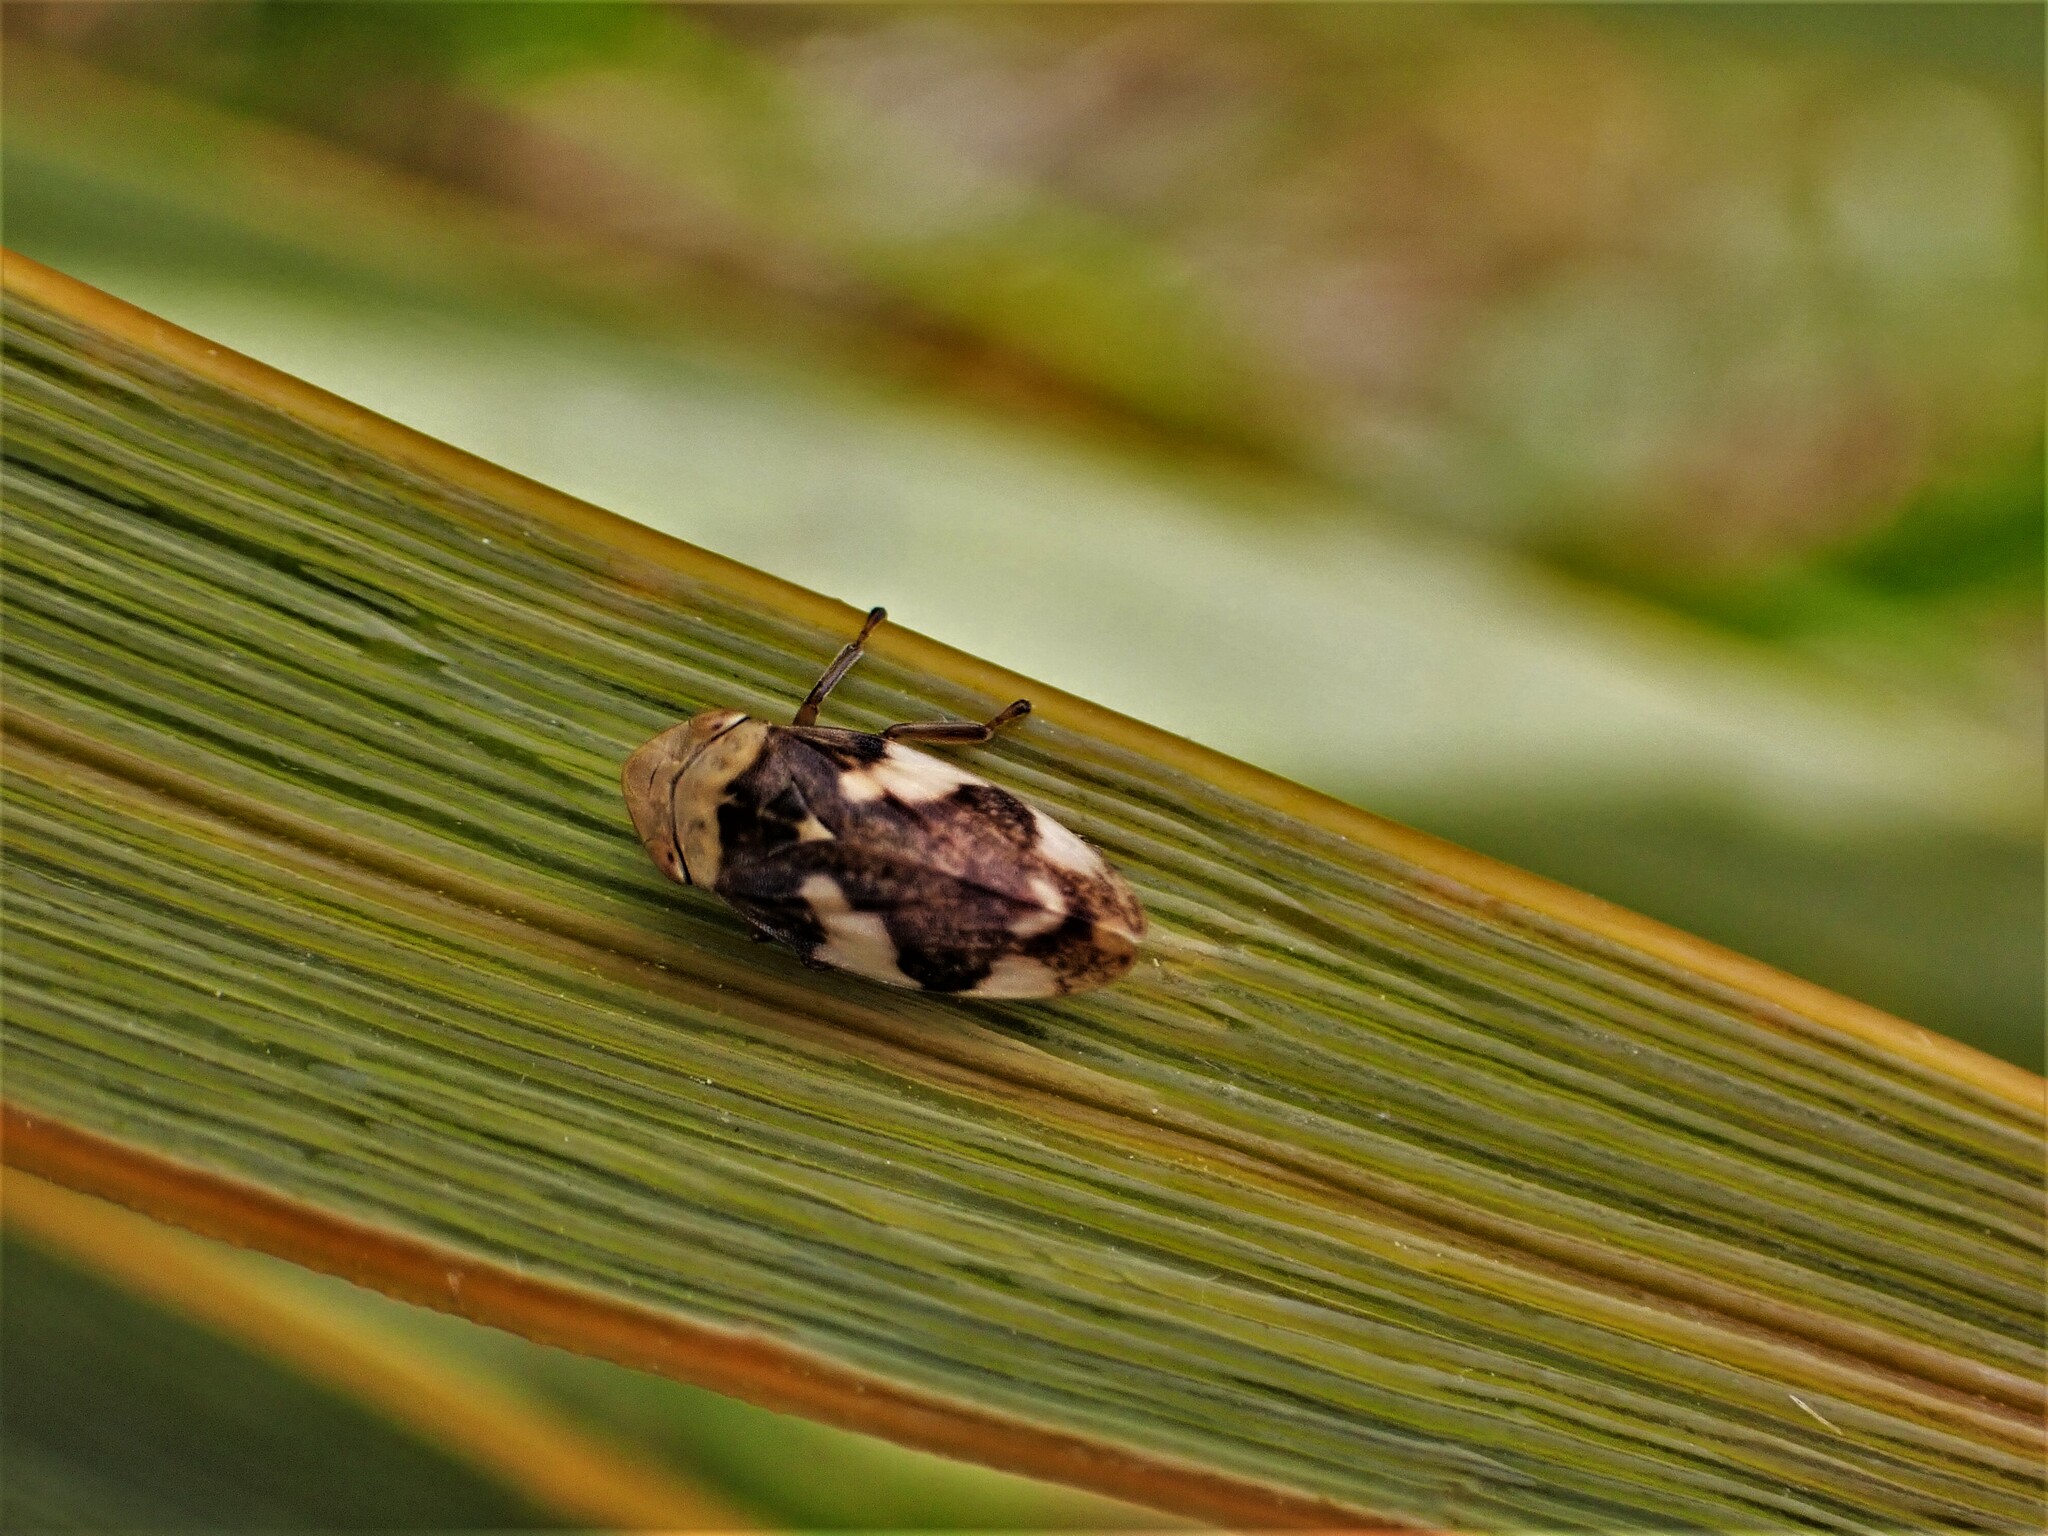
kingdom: Animalia
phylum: Arthropoda
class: Insecta
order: Hemiptera
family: Aphrophoridae
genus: Philaenus
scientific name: Philaenus spumarius
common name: Meadow spittlebug
